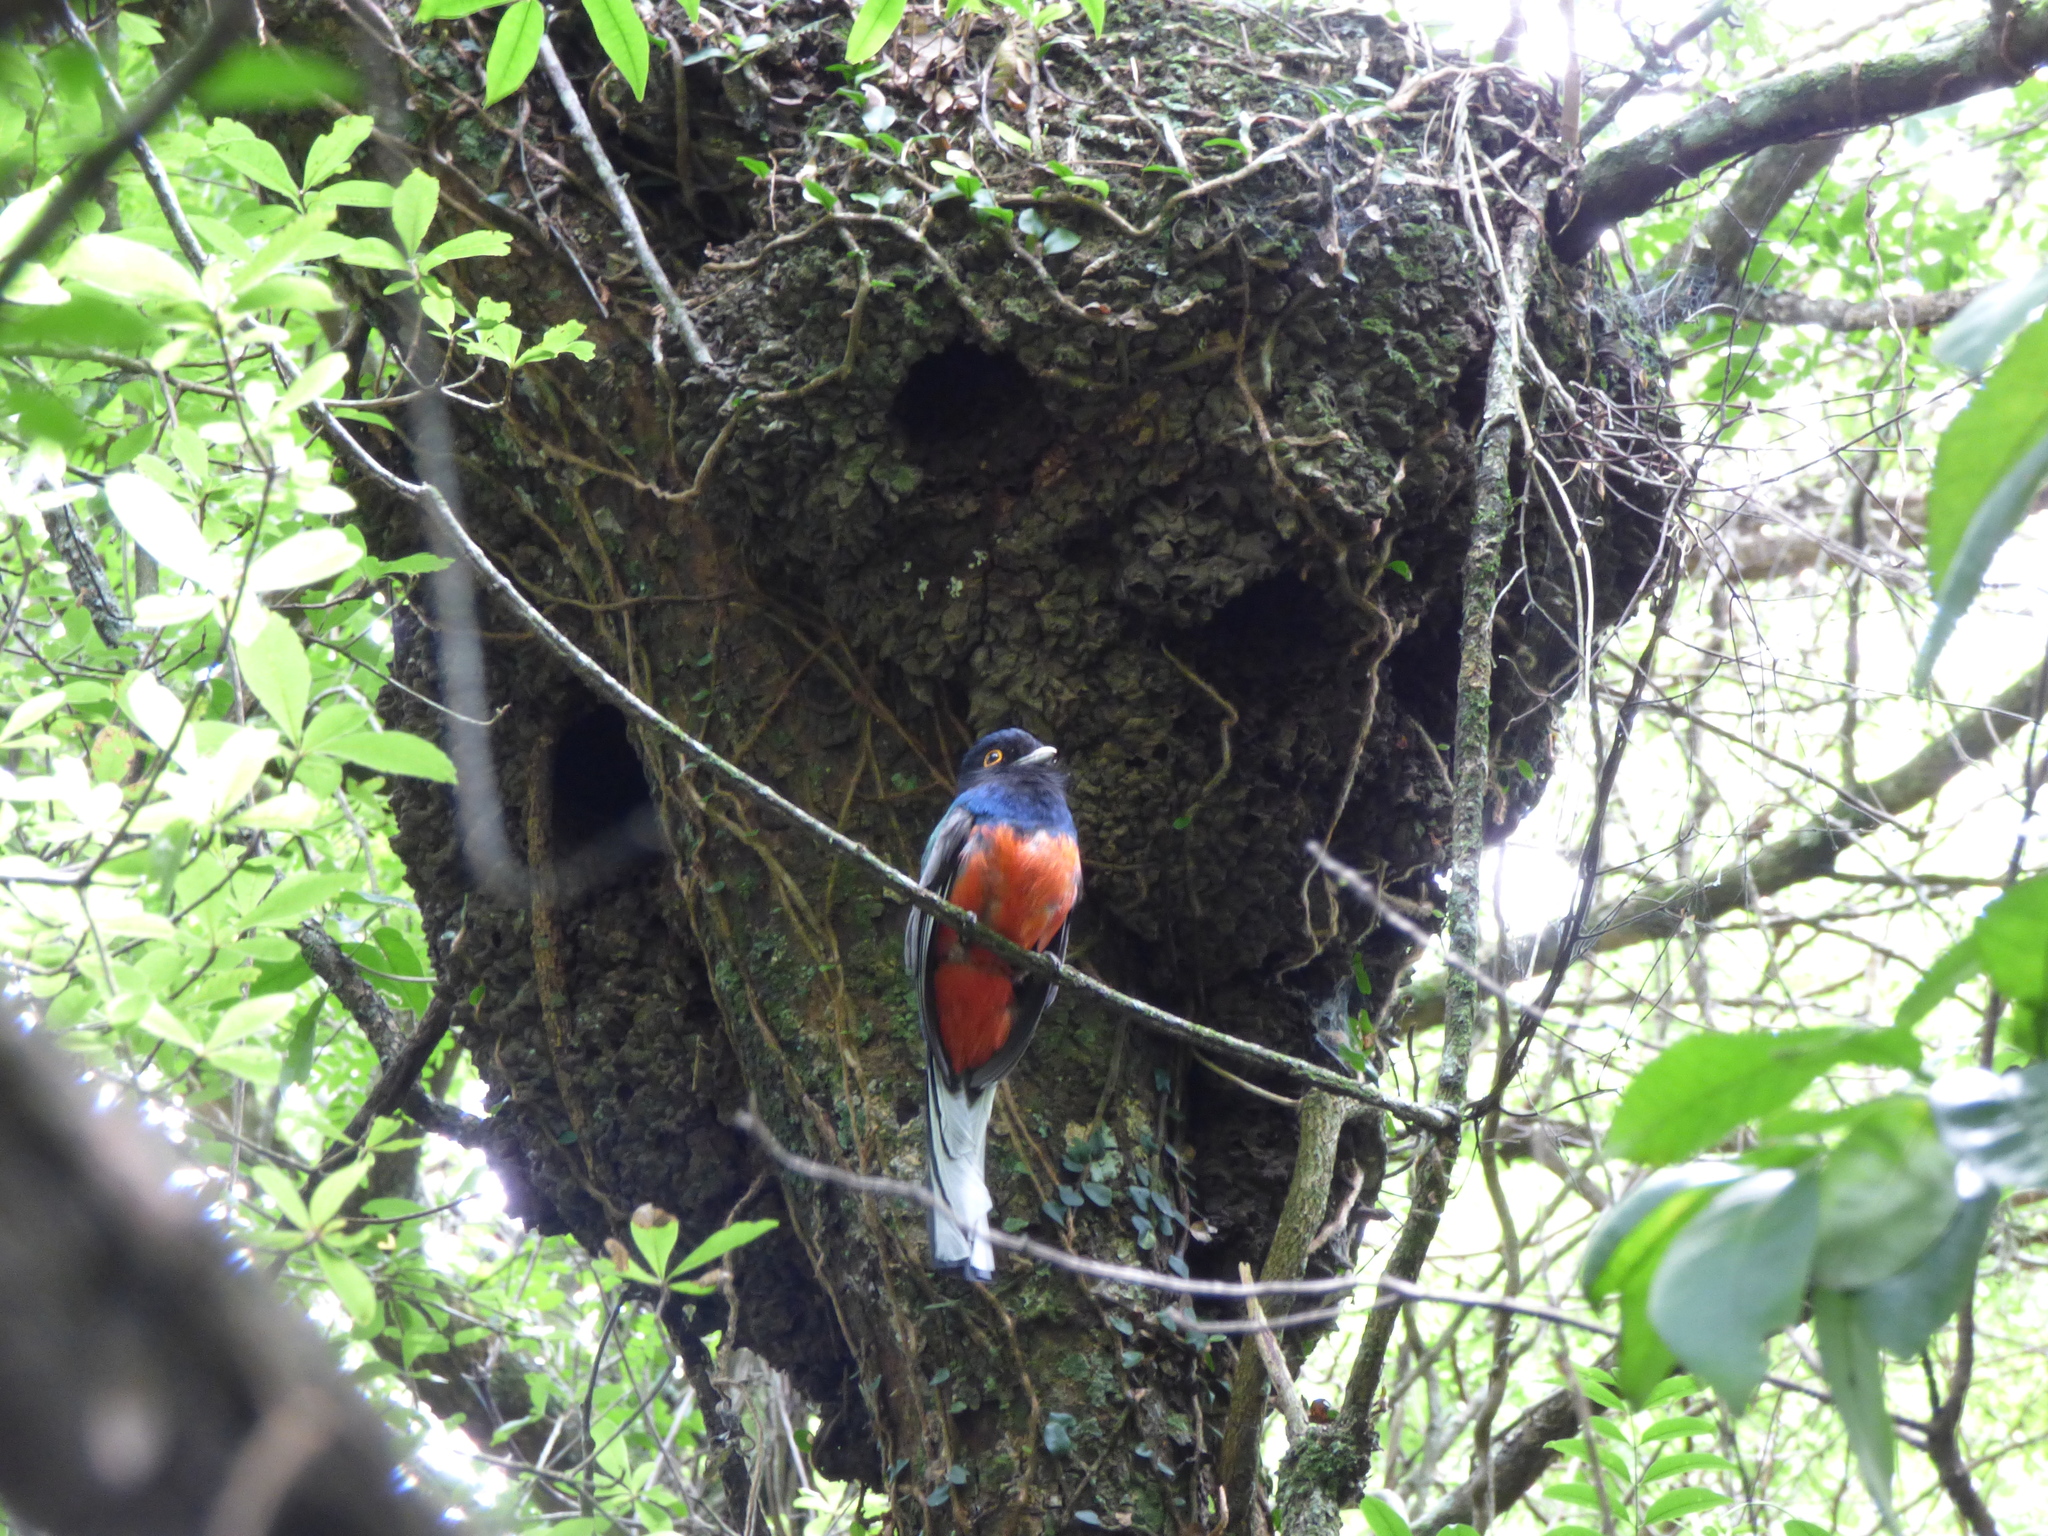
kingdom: Animalia
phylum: Chordata
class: Aves
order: Trogoniformes
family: Trogonidae
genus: Trogon
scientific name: Trogon surrucura
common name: Surucua trogon
